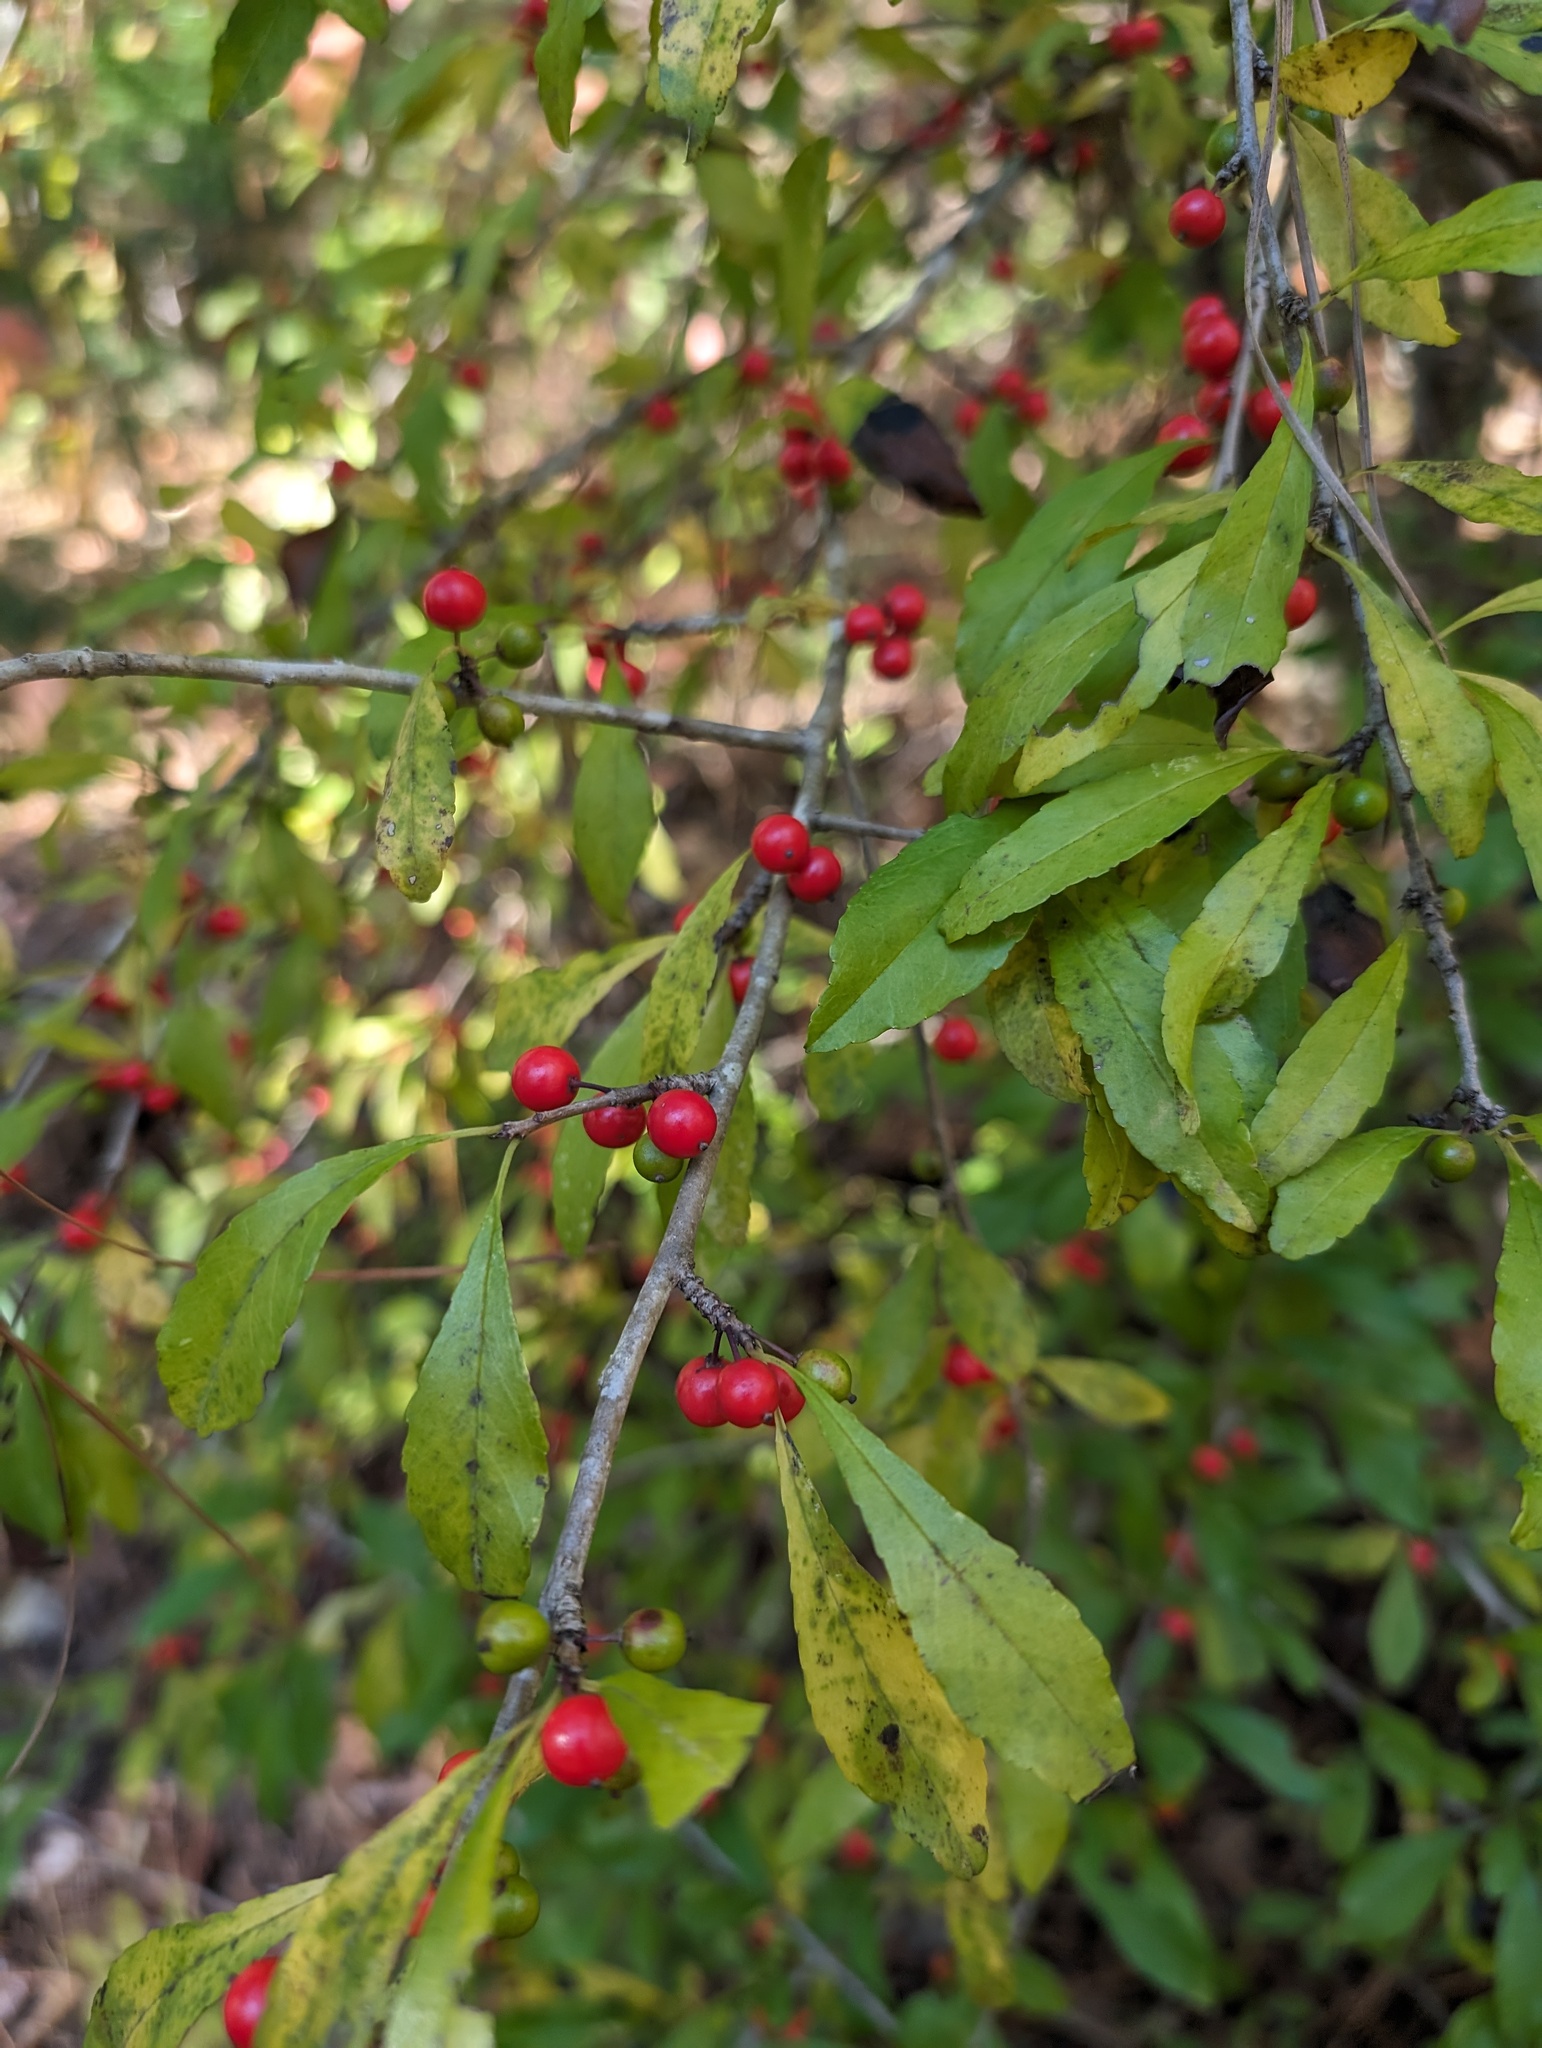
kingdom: Plantae
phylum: Tracheophyta
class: Magnoliopsida
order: Aquifoliales
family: Aquifoliaceae
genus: Ilex
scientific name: Ilex decidua
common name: Possum-haw
